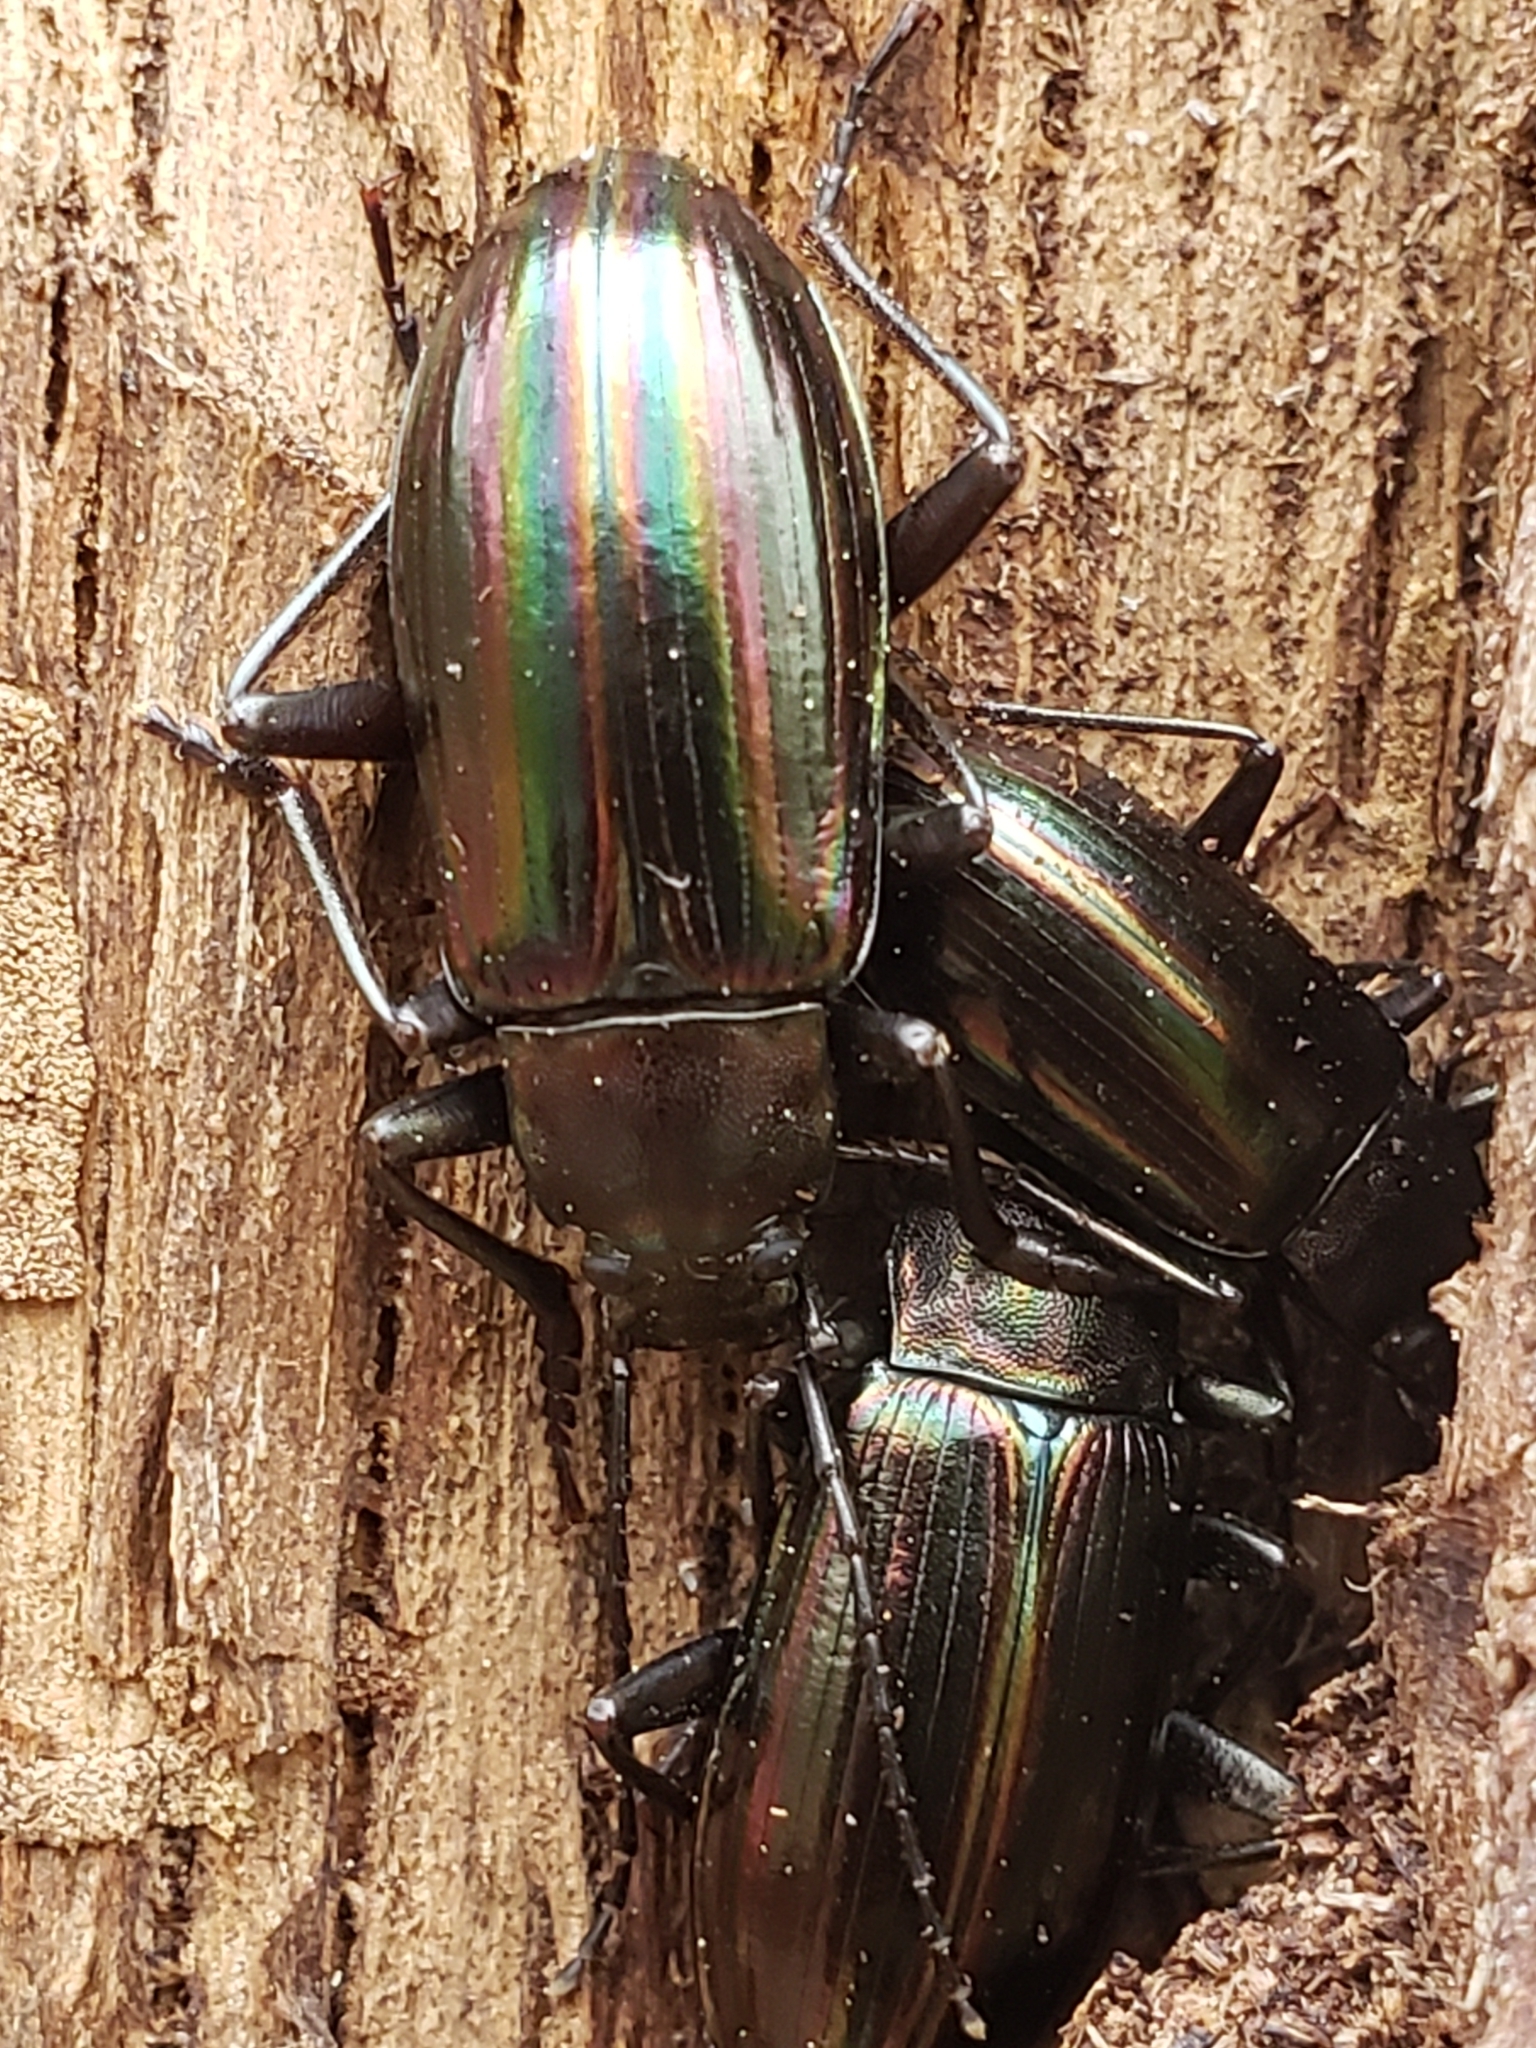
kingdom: Animalia
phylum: Arthropoda
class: Insecta
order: Coleoptera
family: Tenebrionidae
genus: Tarpela
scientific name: Tarpela micans
